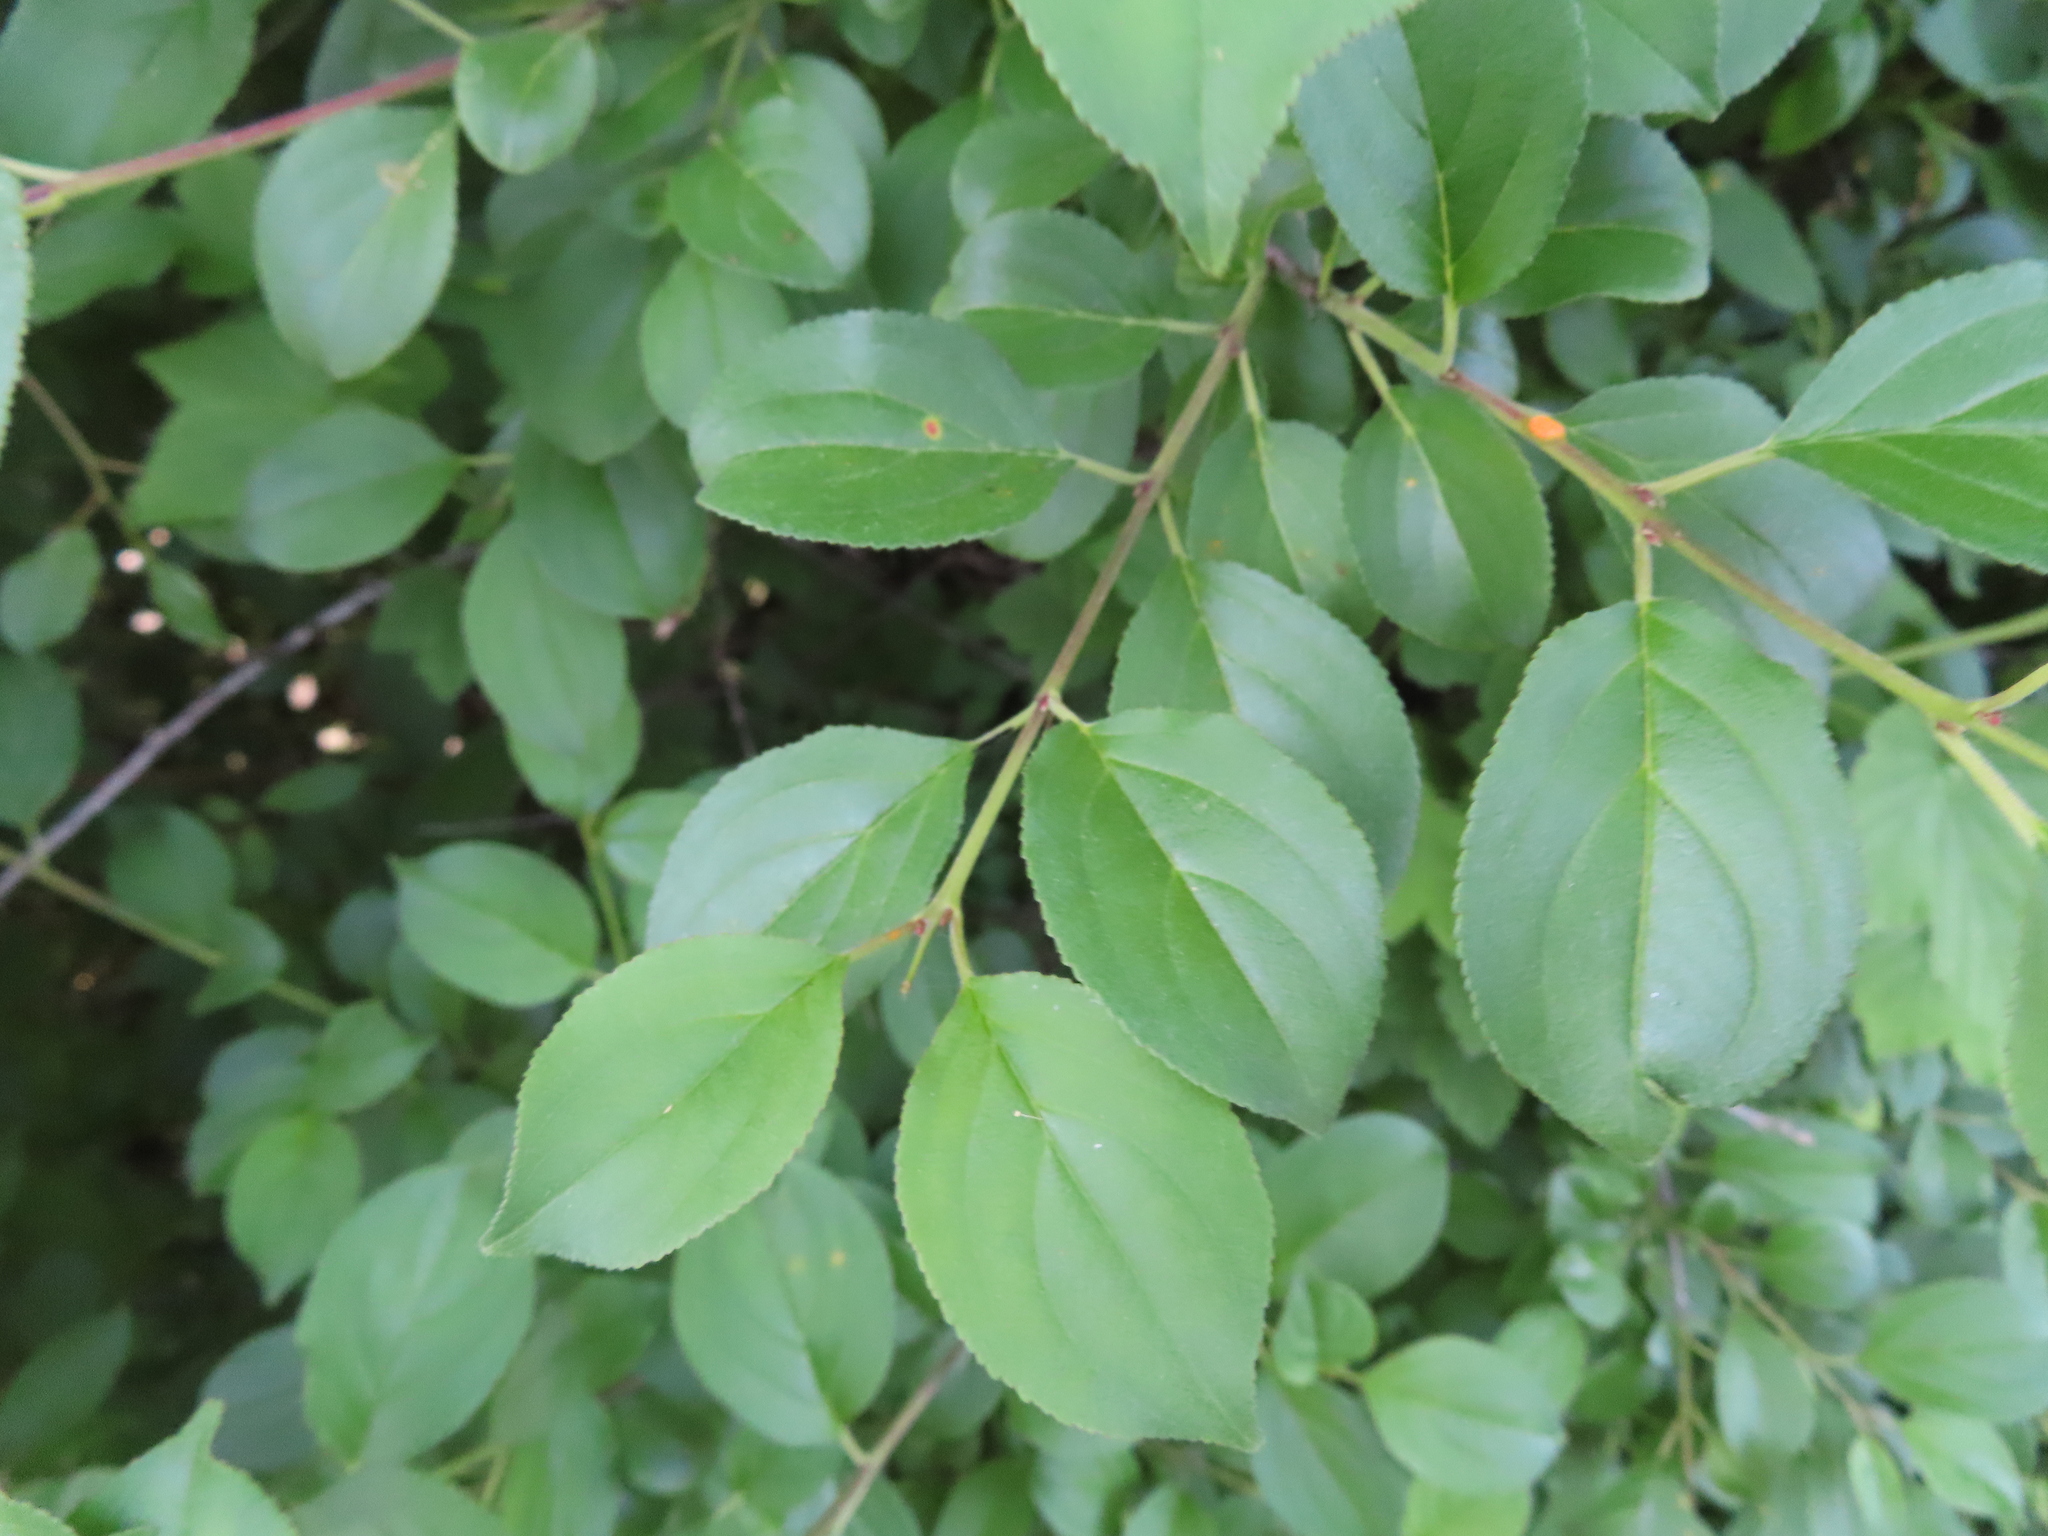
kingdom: Plantae
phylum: Tracheophyta
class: Magnoliopsida
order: Rosales
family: Rhamnaceae
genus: Rhamnus
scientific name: Rhamnus cathartica
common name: Common buckthorn
